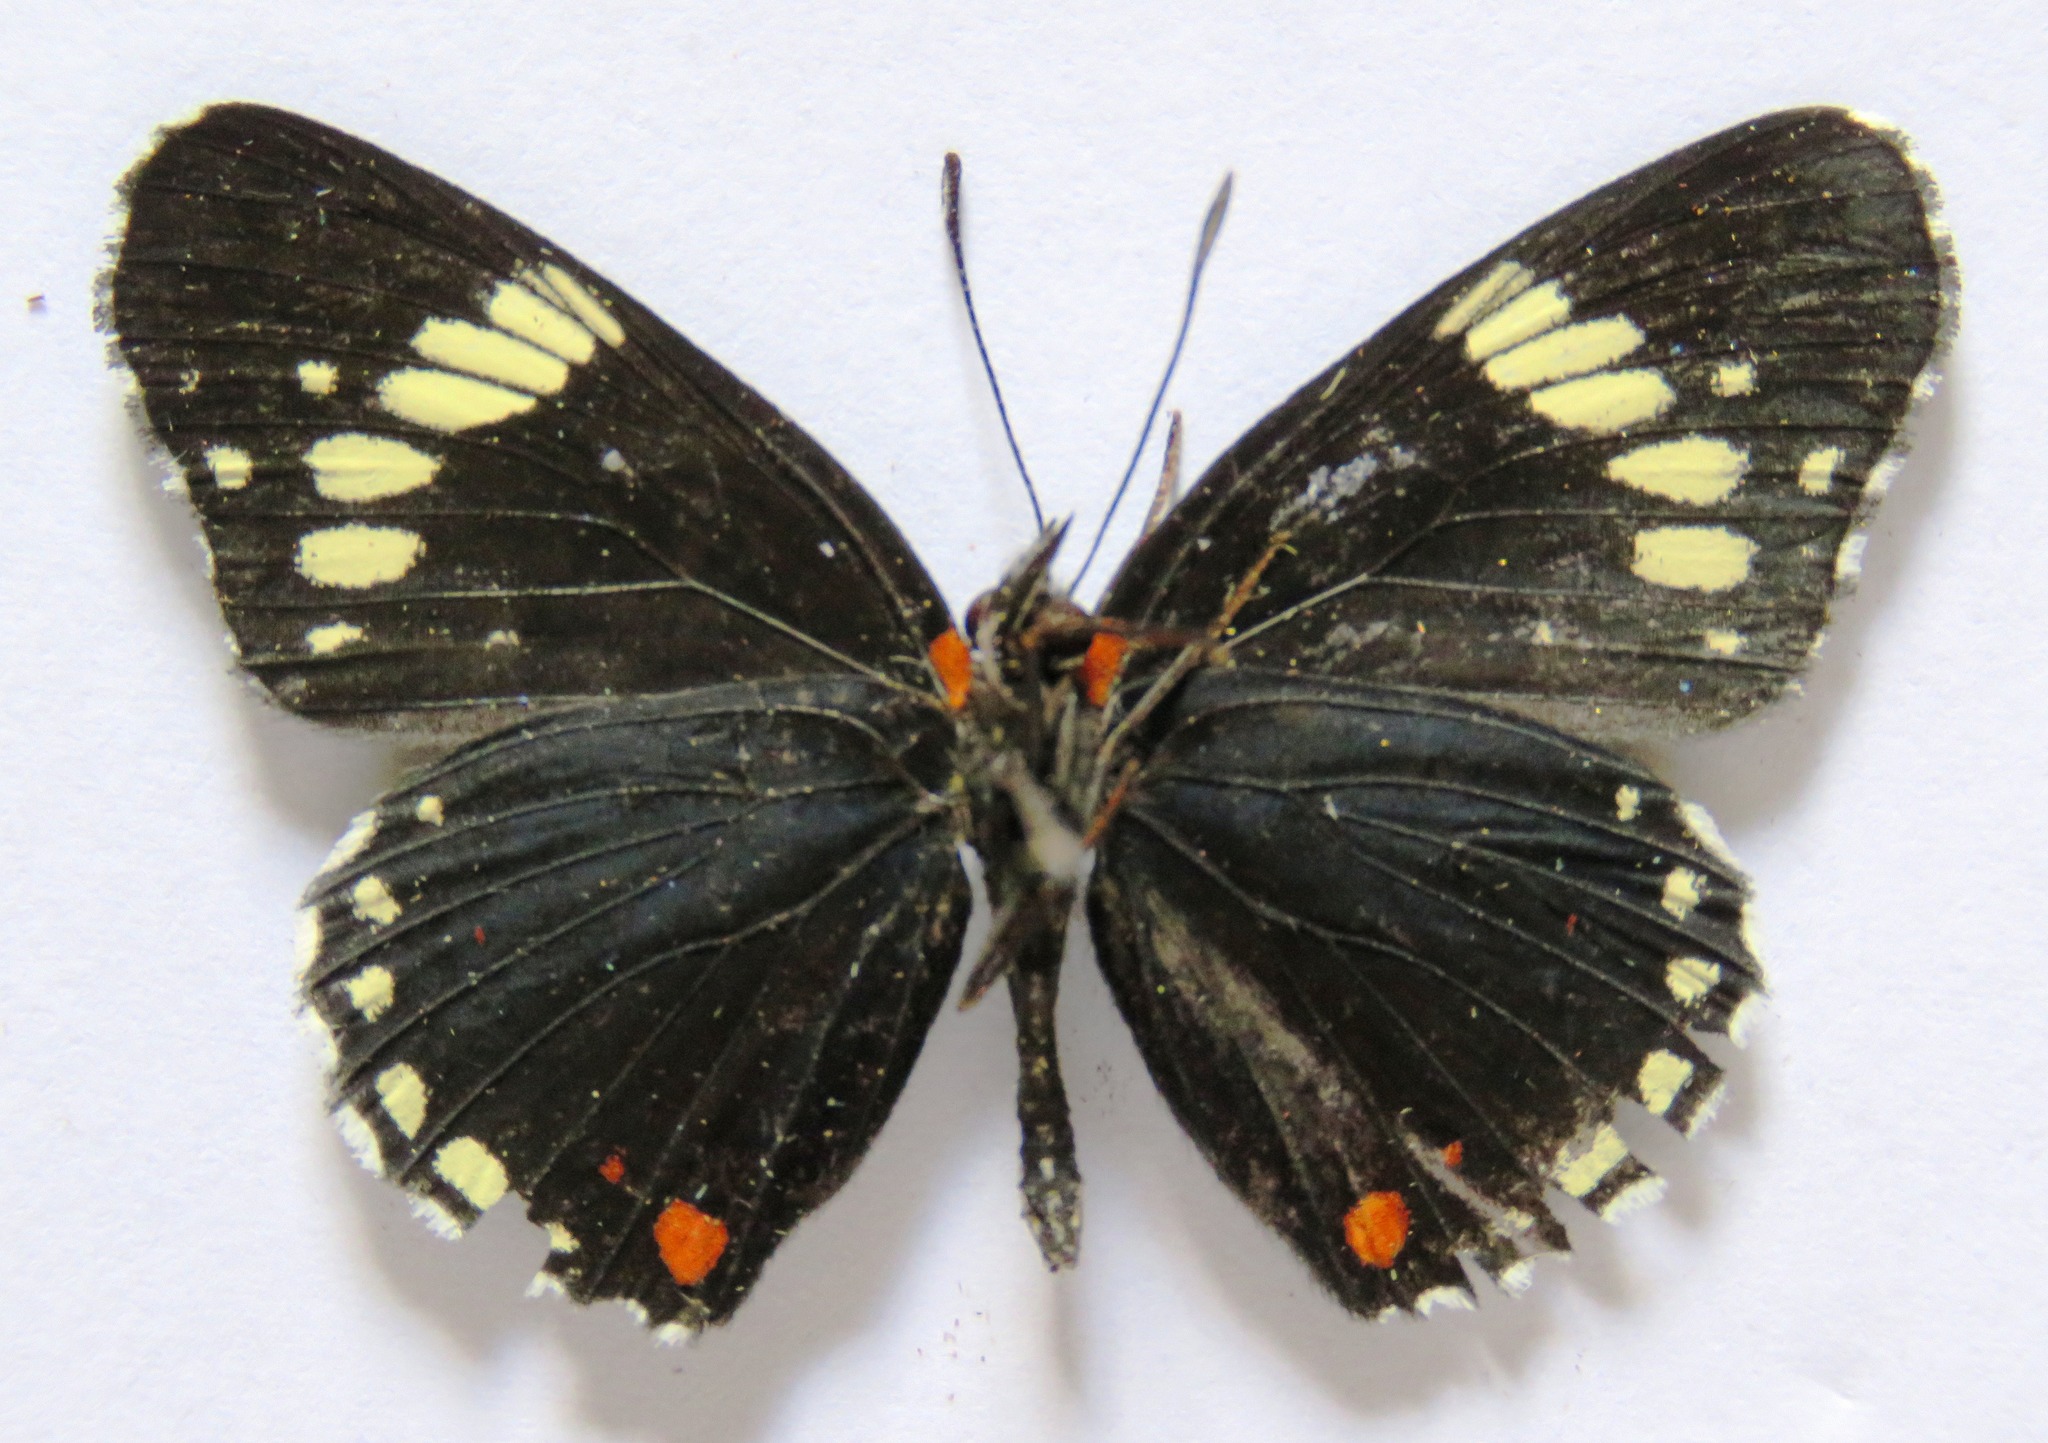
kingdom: Animalia
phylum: Arthropoda
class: Insecta
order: Lepidoptera
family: Nymphalidae
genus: Chlosyne
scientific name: Chlosyne melanarge
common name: Cream-banded checkerspot
